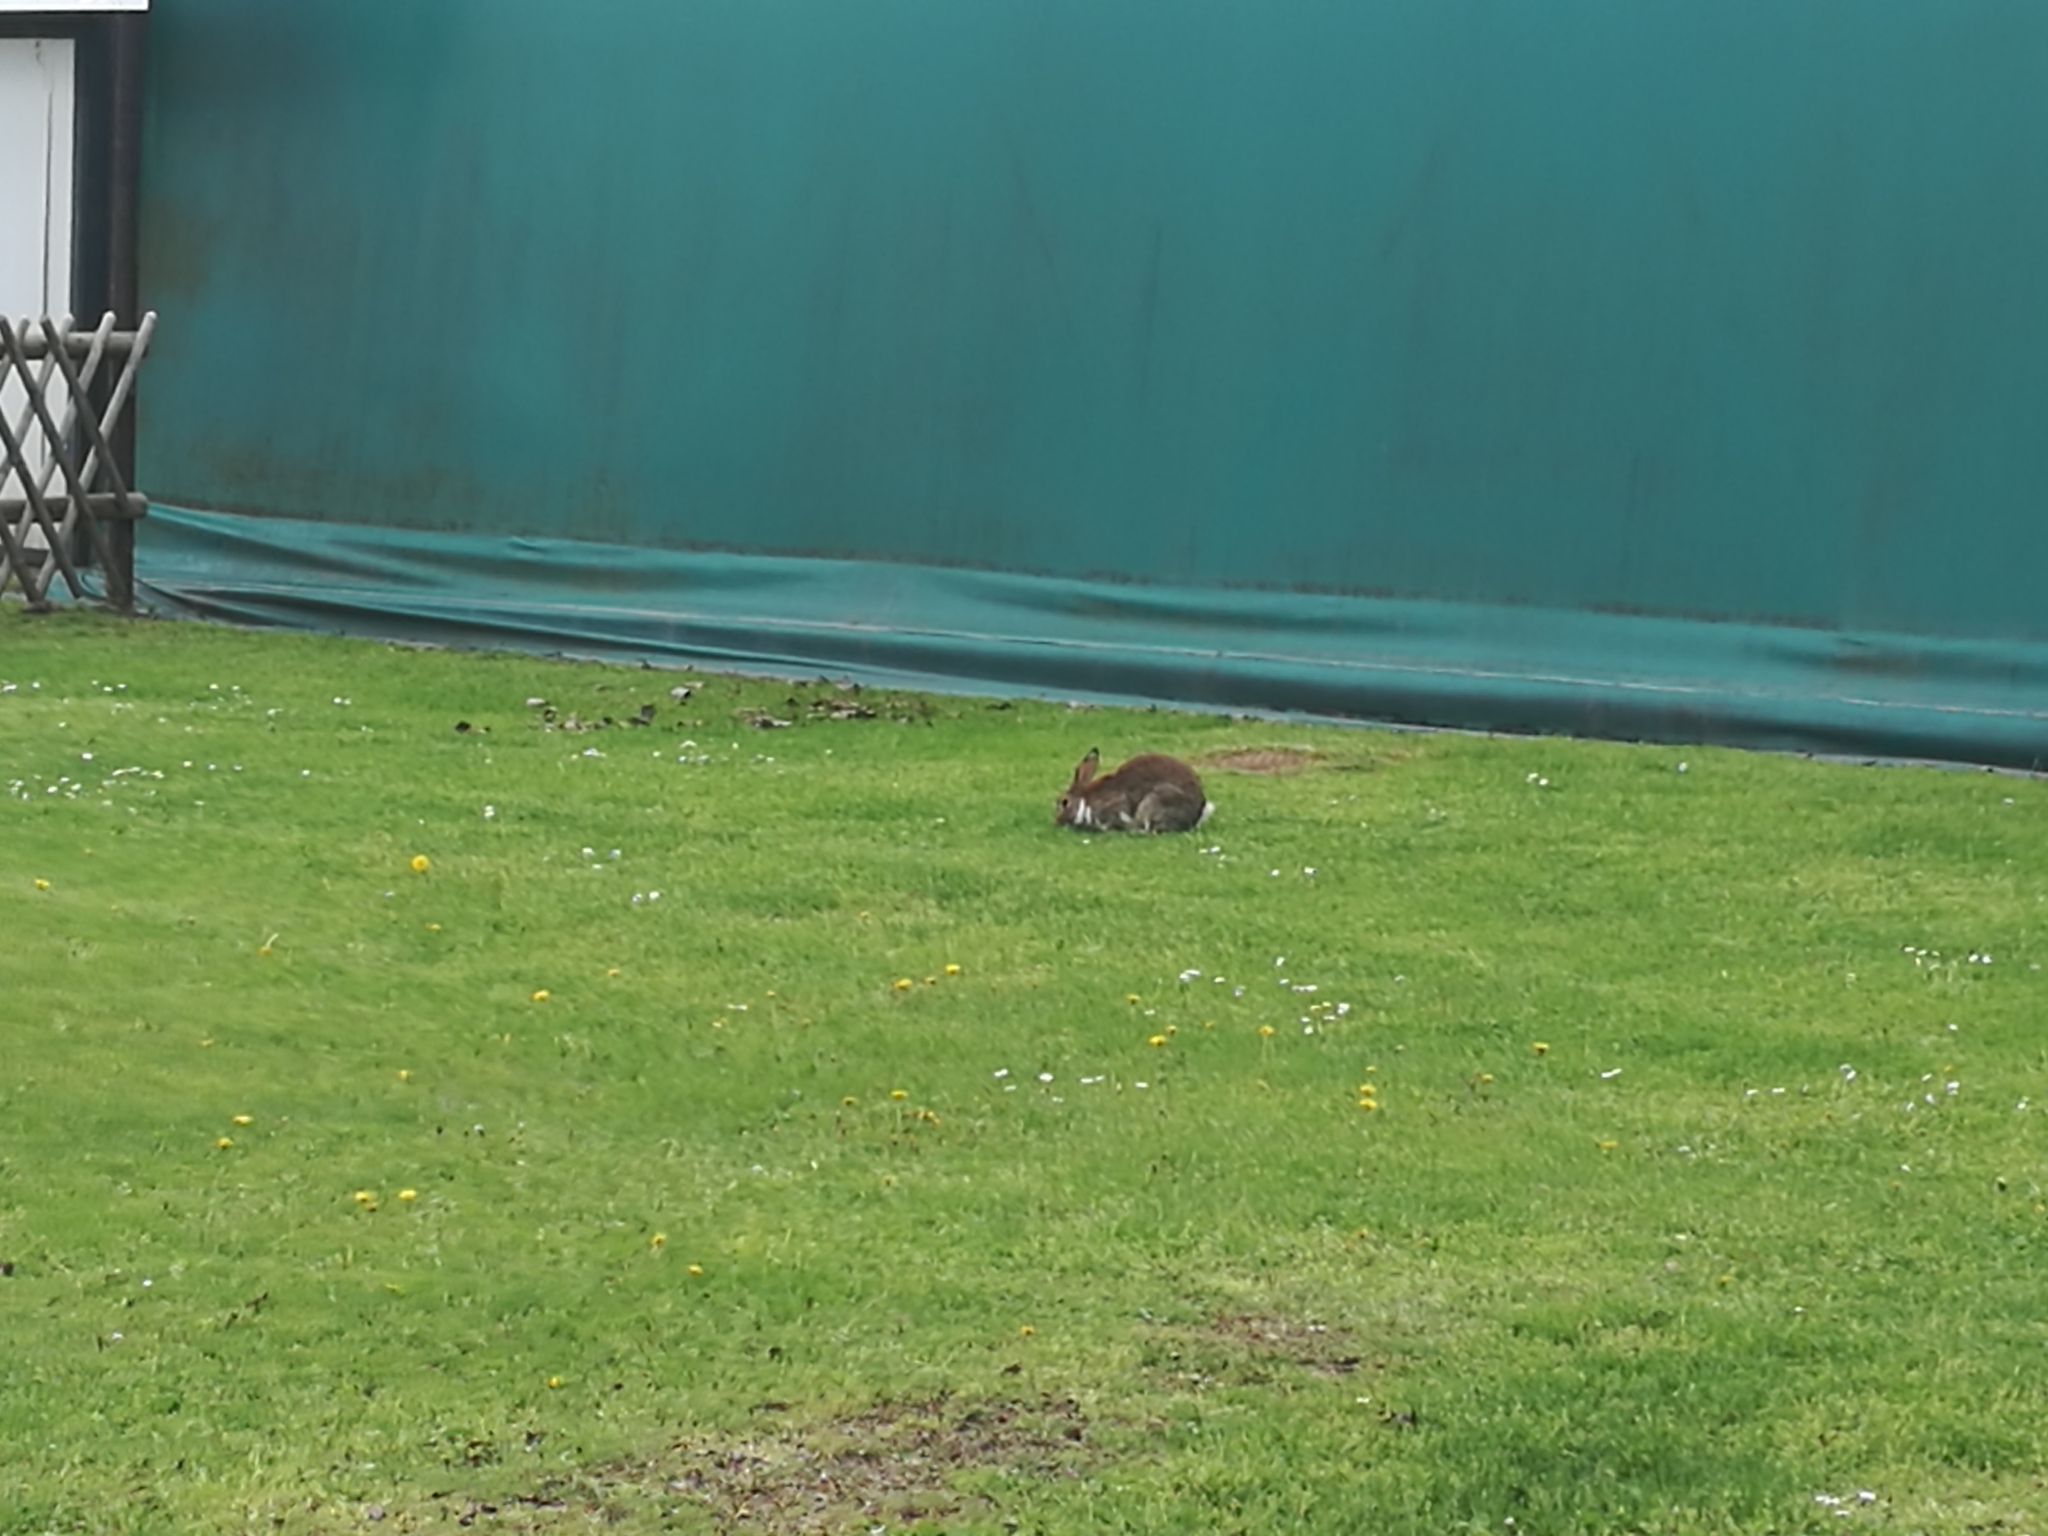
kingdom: Animalia
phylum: Chordata
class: Mammalia
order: Lagomorpha
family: Leporidae
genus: Oryctolagus
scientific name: Oryctolagus cuniculus
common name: European rabbit
